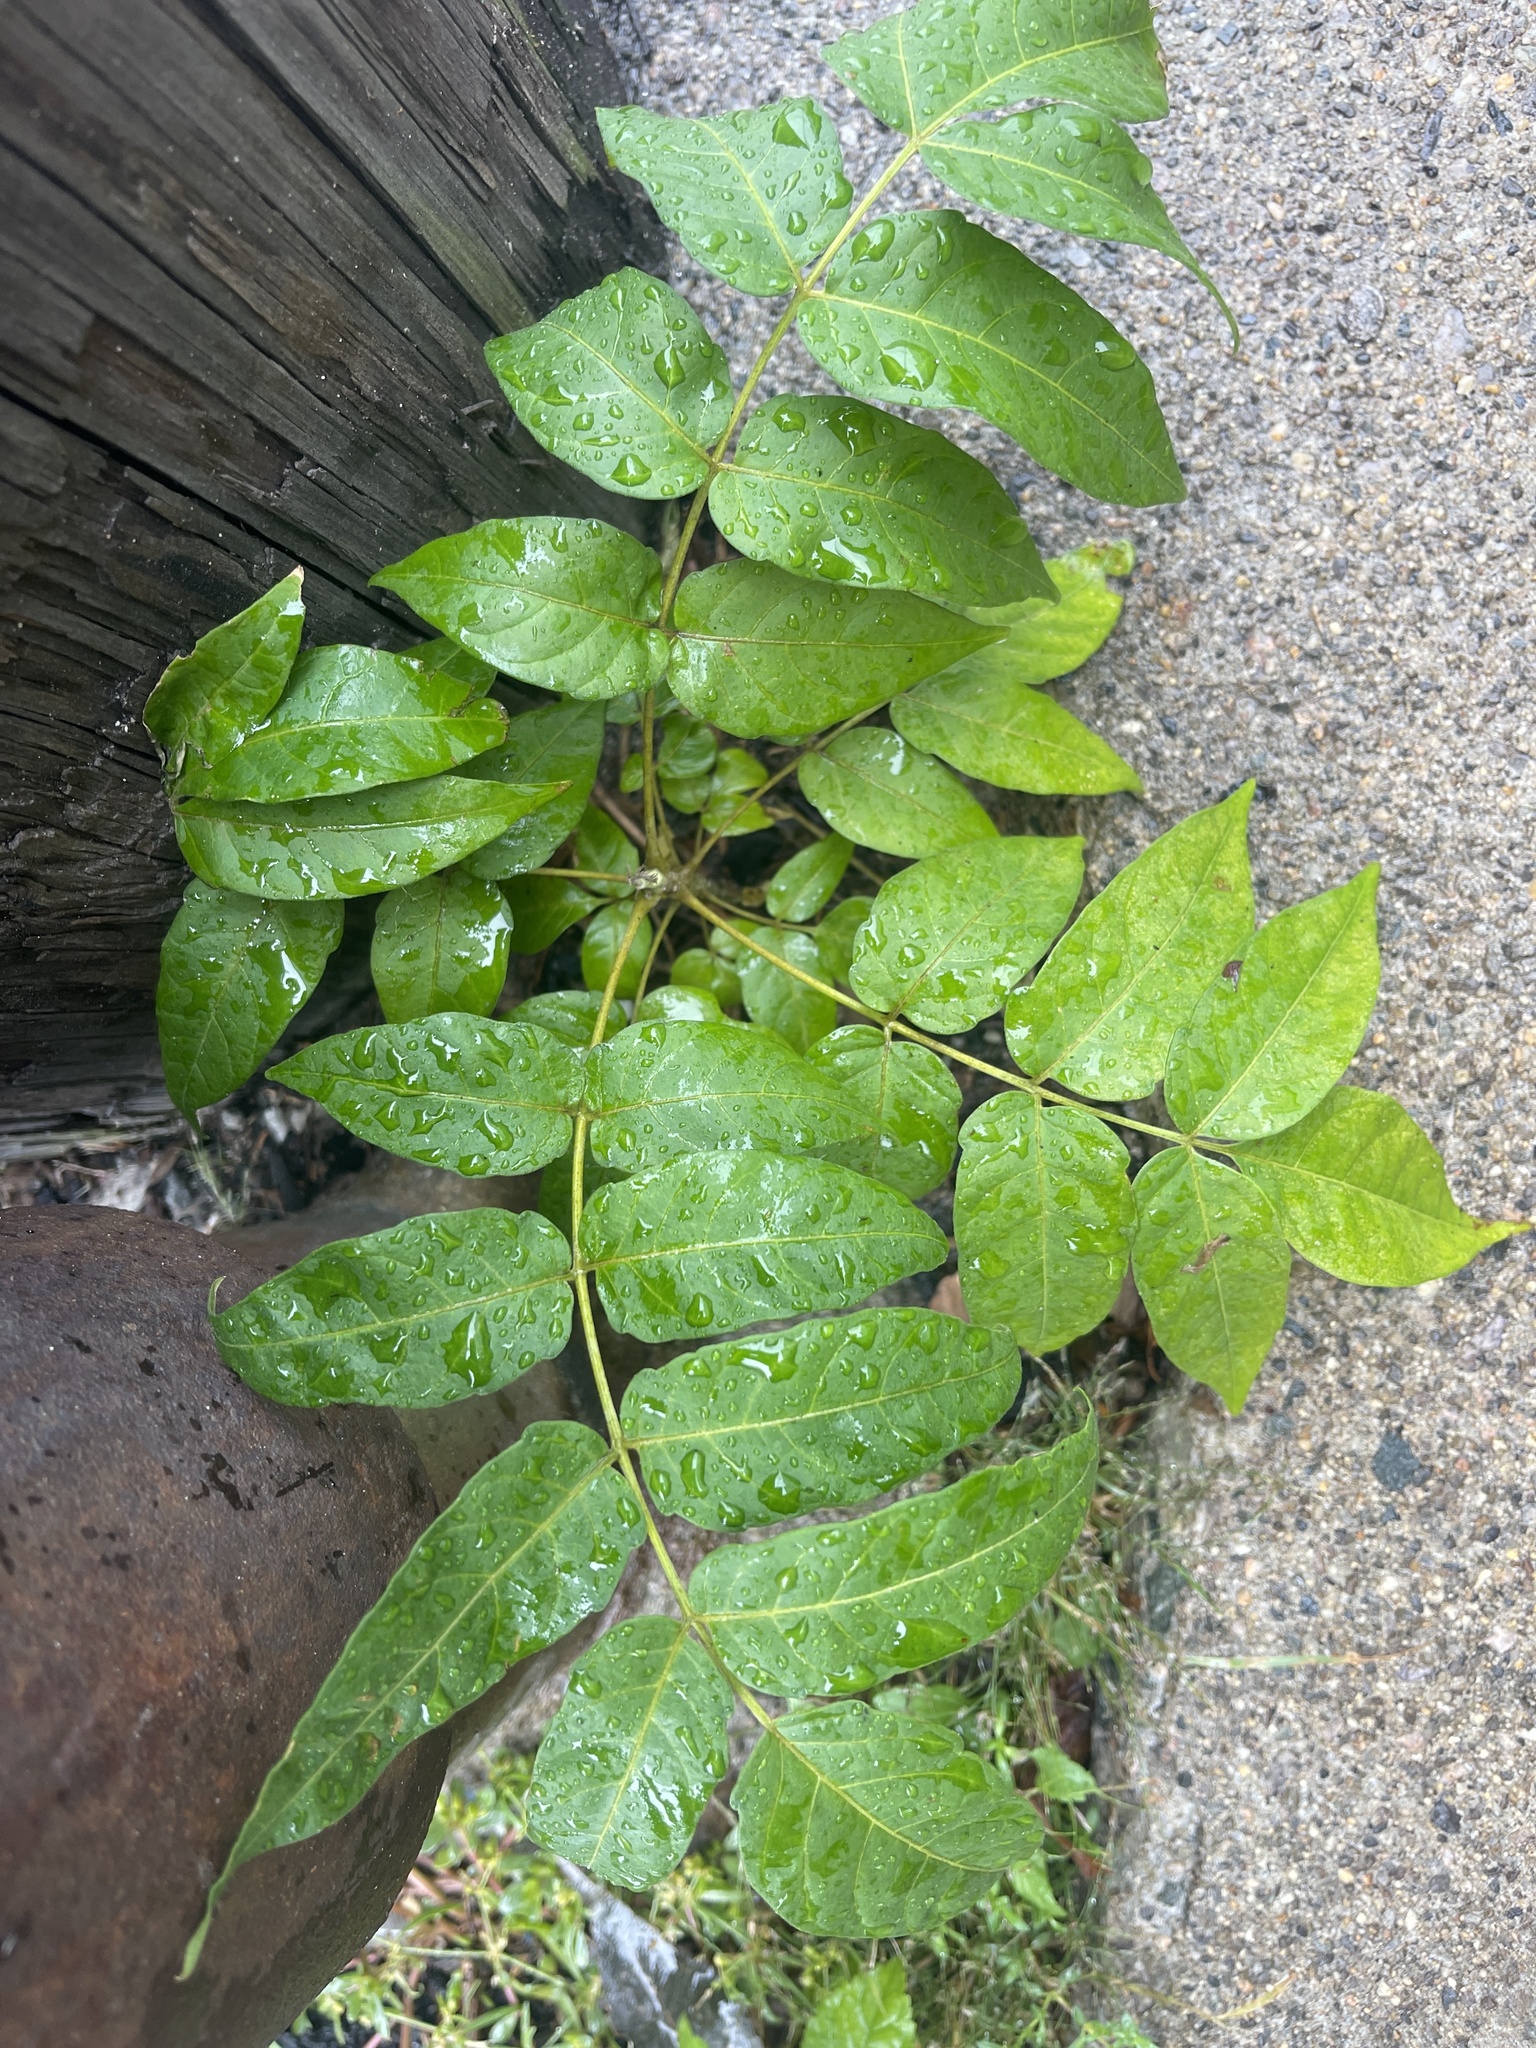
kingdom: Plantae
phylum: Tracheophyta
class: Magnoliopsida
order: Sapindales
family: Simaroubaceae
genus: Ailanthus
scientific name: Ailanthus altissima
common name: Tree-of-heaven
